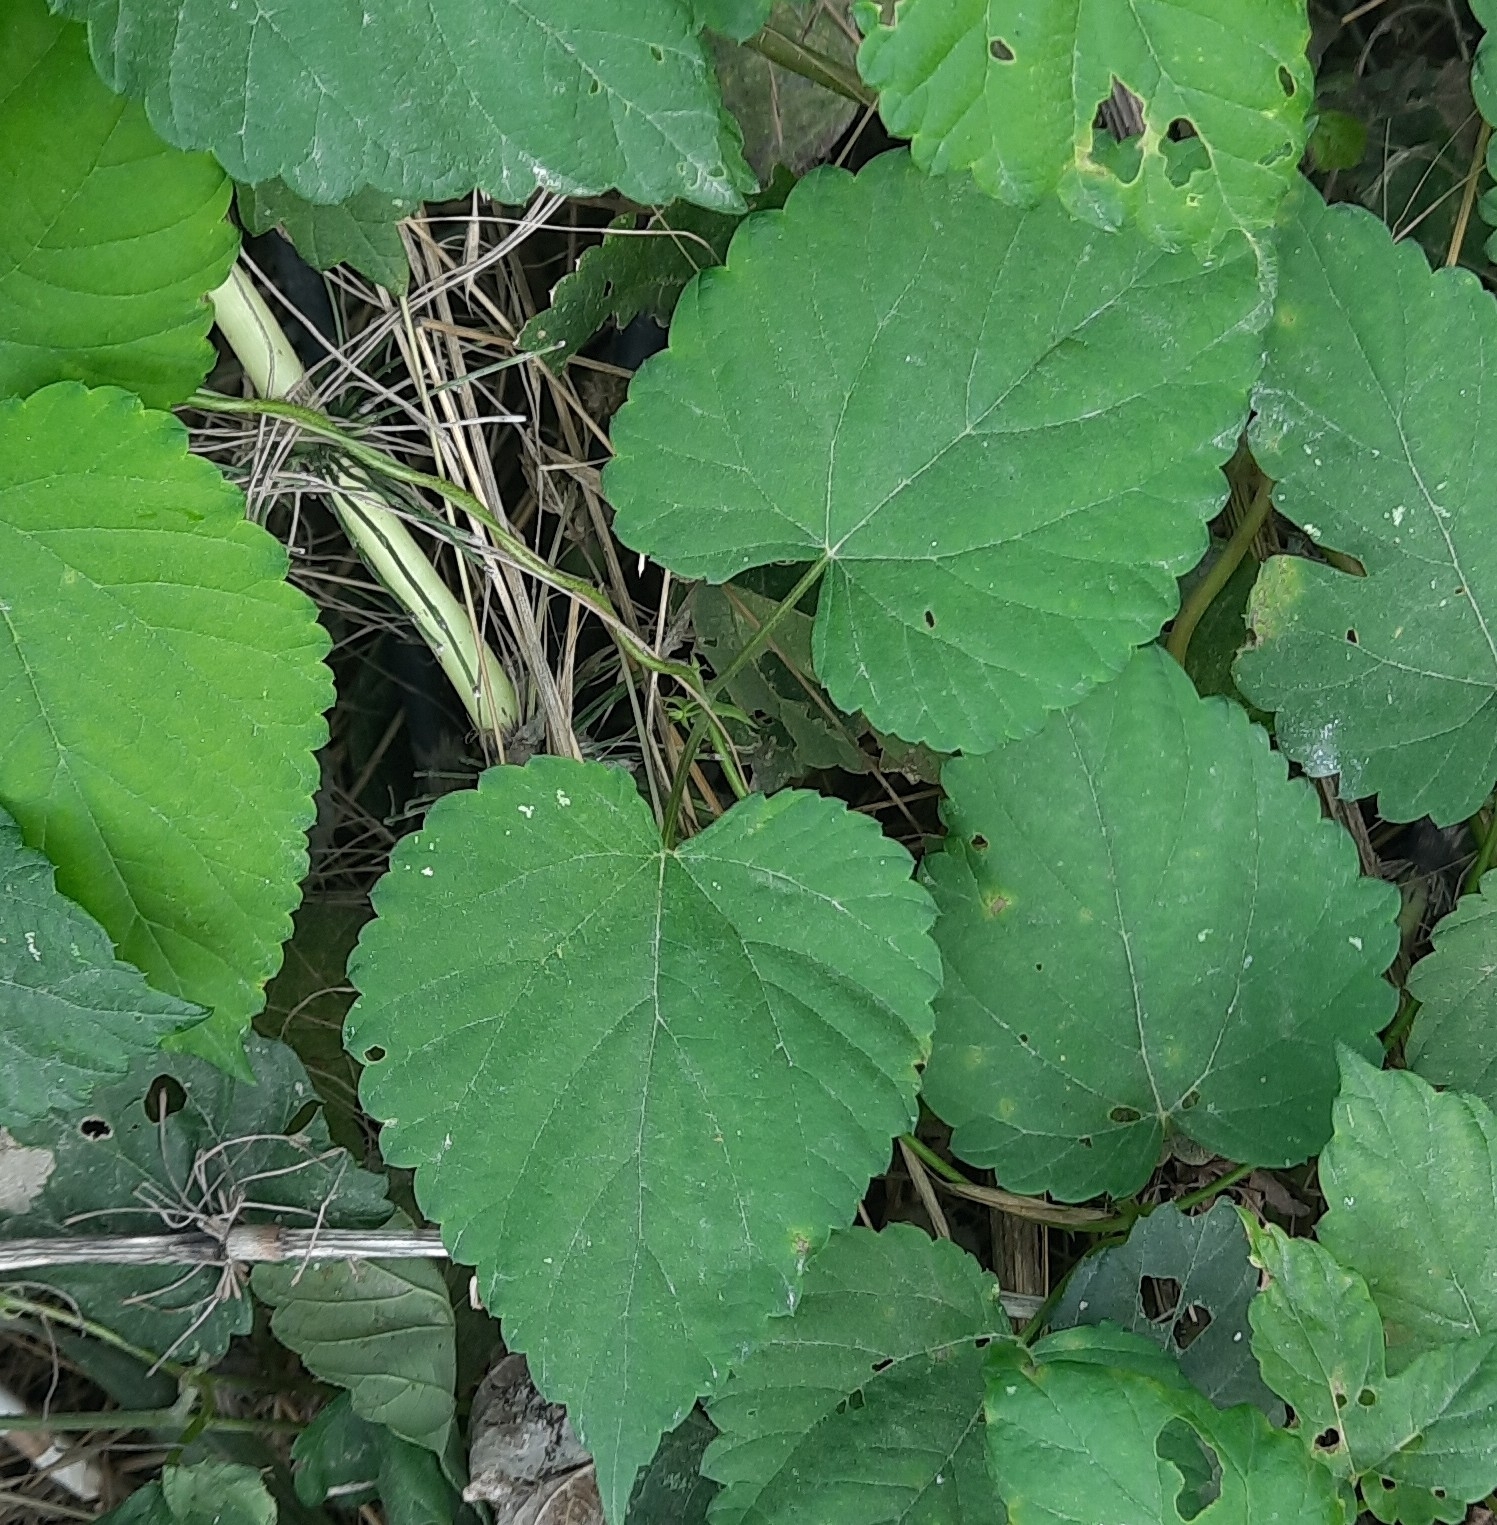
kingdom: Plantae
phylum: Tracheophyta
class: Magnoliopsida
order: Rosales
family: Cannabaceae
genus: Humulus
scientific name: Humulus lupulus
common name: Hop
